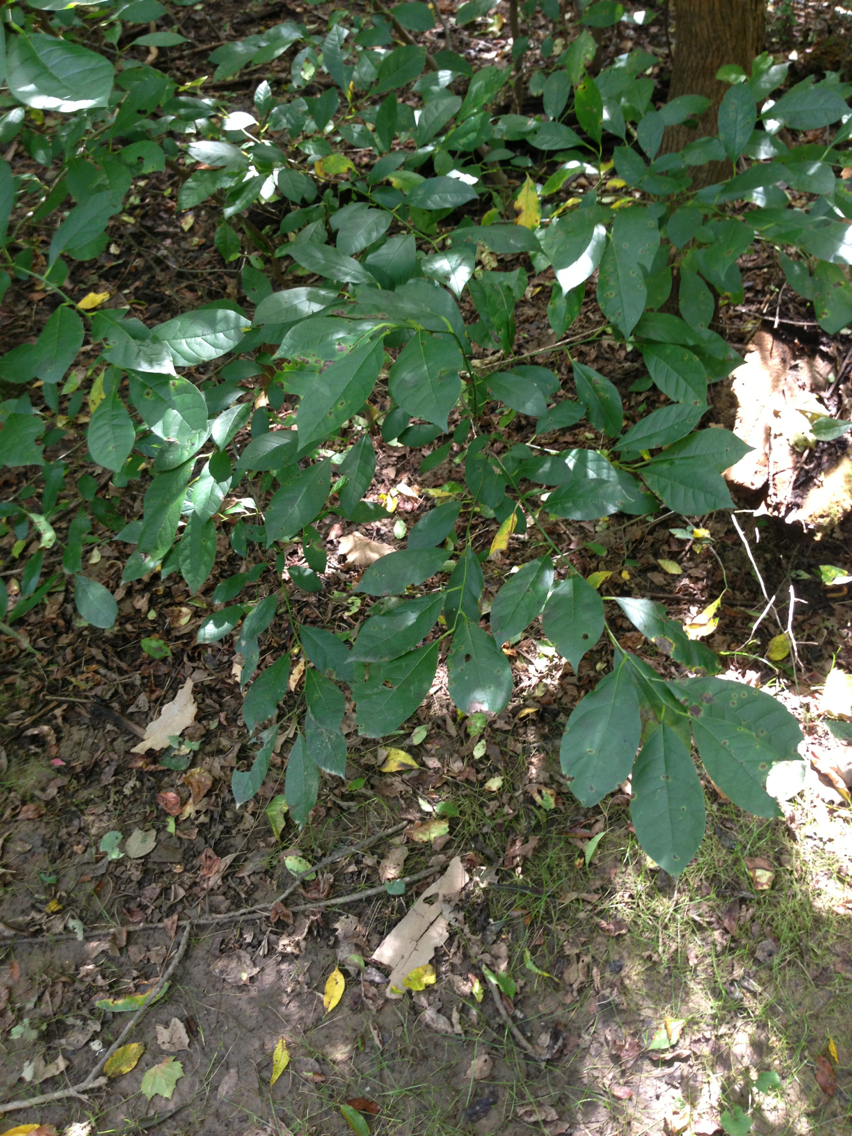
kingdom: Plantae
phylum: Tracheophyta
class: Magnoliopsida
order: Laurales
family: Lauraceae
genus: Lindera
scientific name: Lindera benzoin
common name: Spicebush
